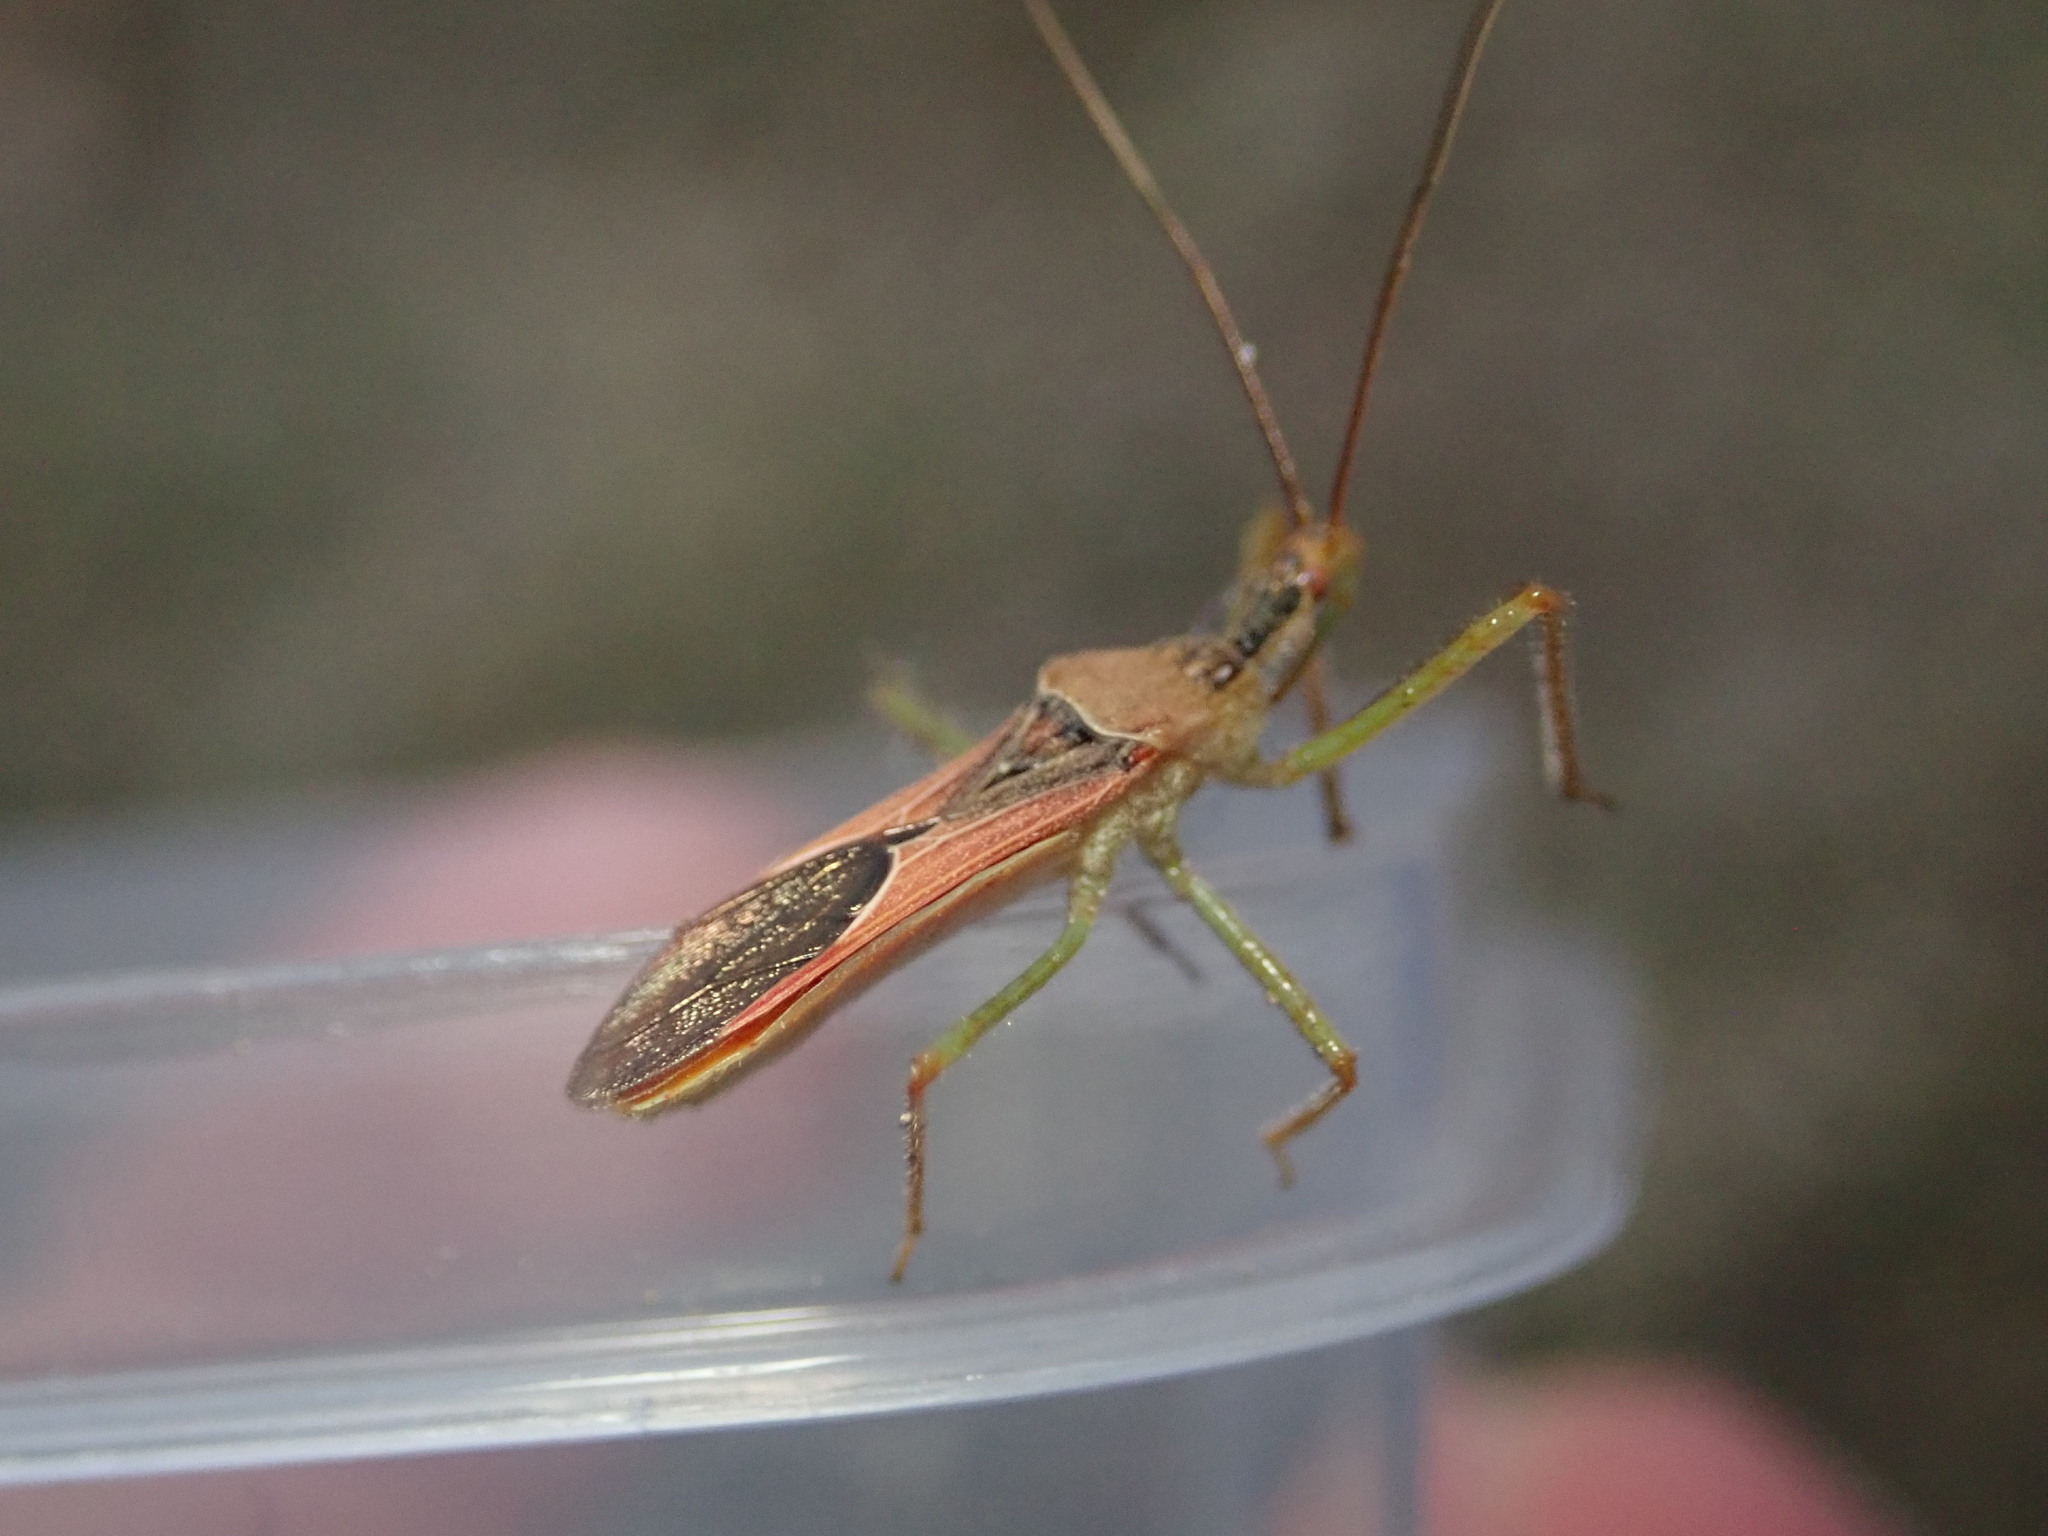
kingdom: Animalia
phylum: Arthropoda
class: Insecta
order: Hemiptera
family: Reduviidae
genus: Zelus
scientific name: Zelus renardii
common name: Assassin bug
